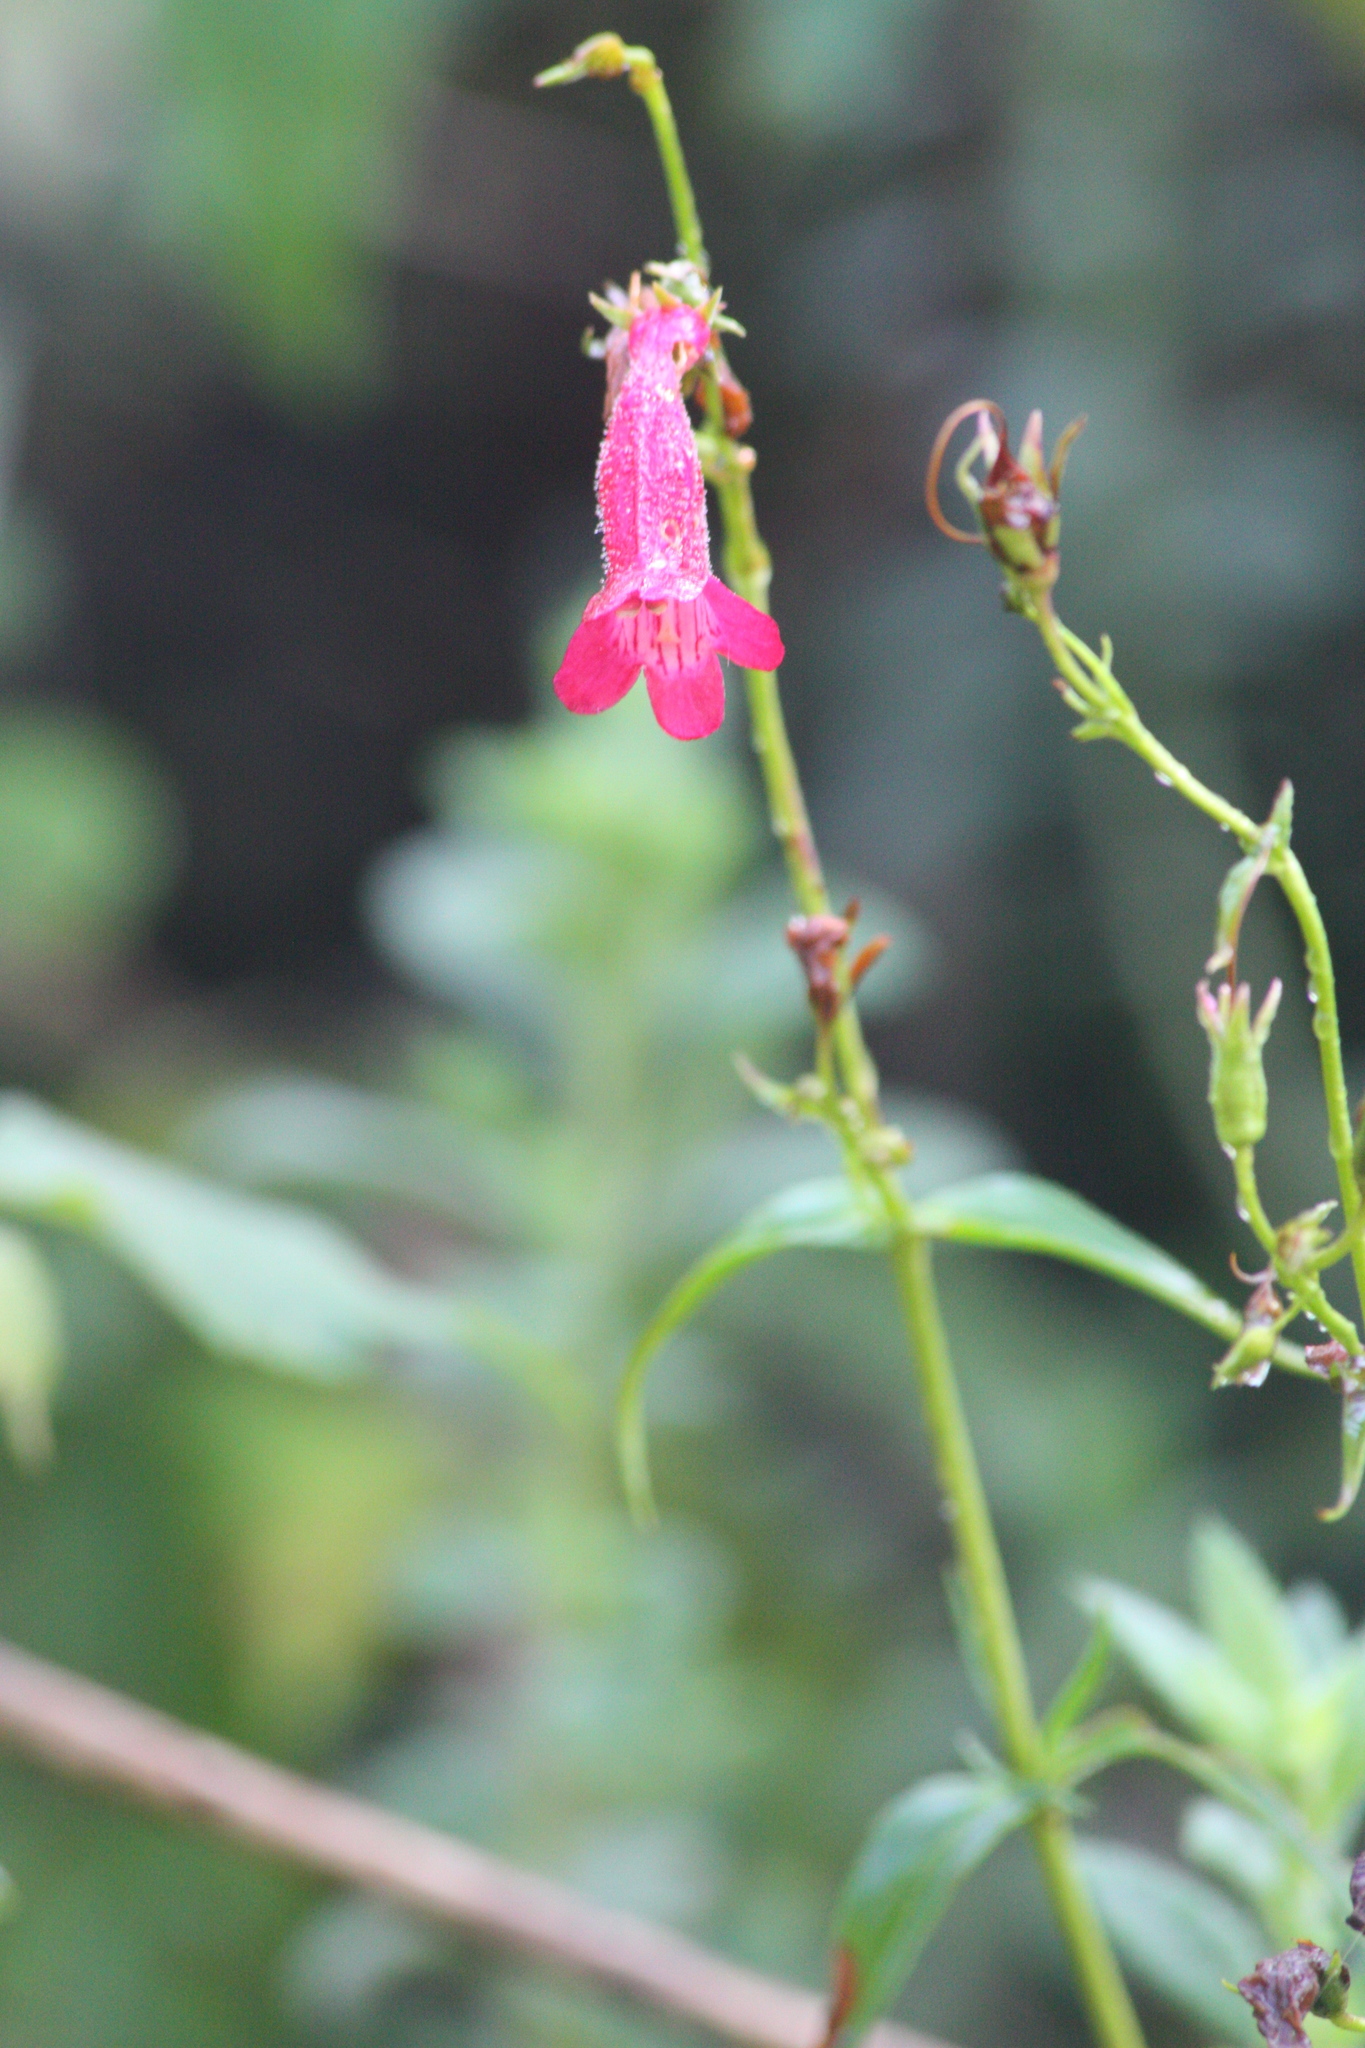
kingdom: Plantae
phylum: Tracheophyta
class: Magnoliopsida
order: Lamiales
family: Plantaginaceae
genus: Penstemon
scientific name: Penstemon roseus
